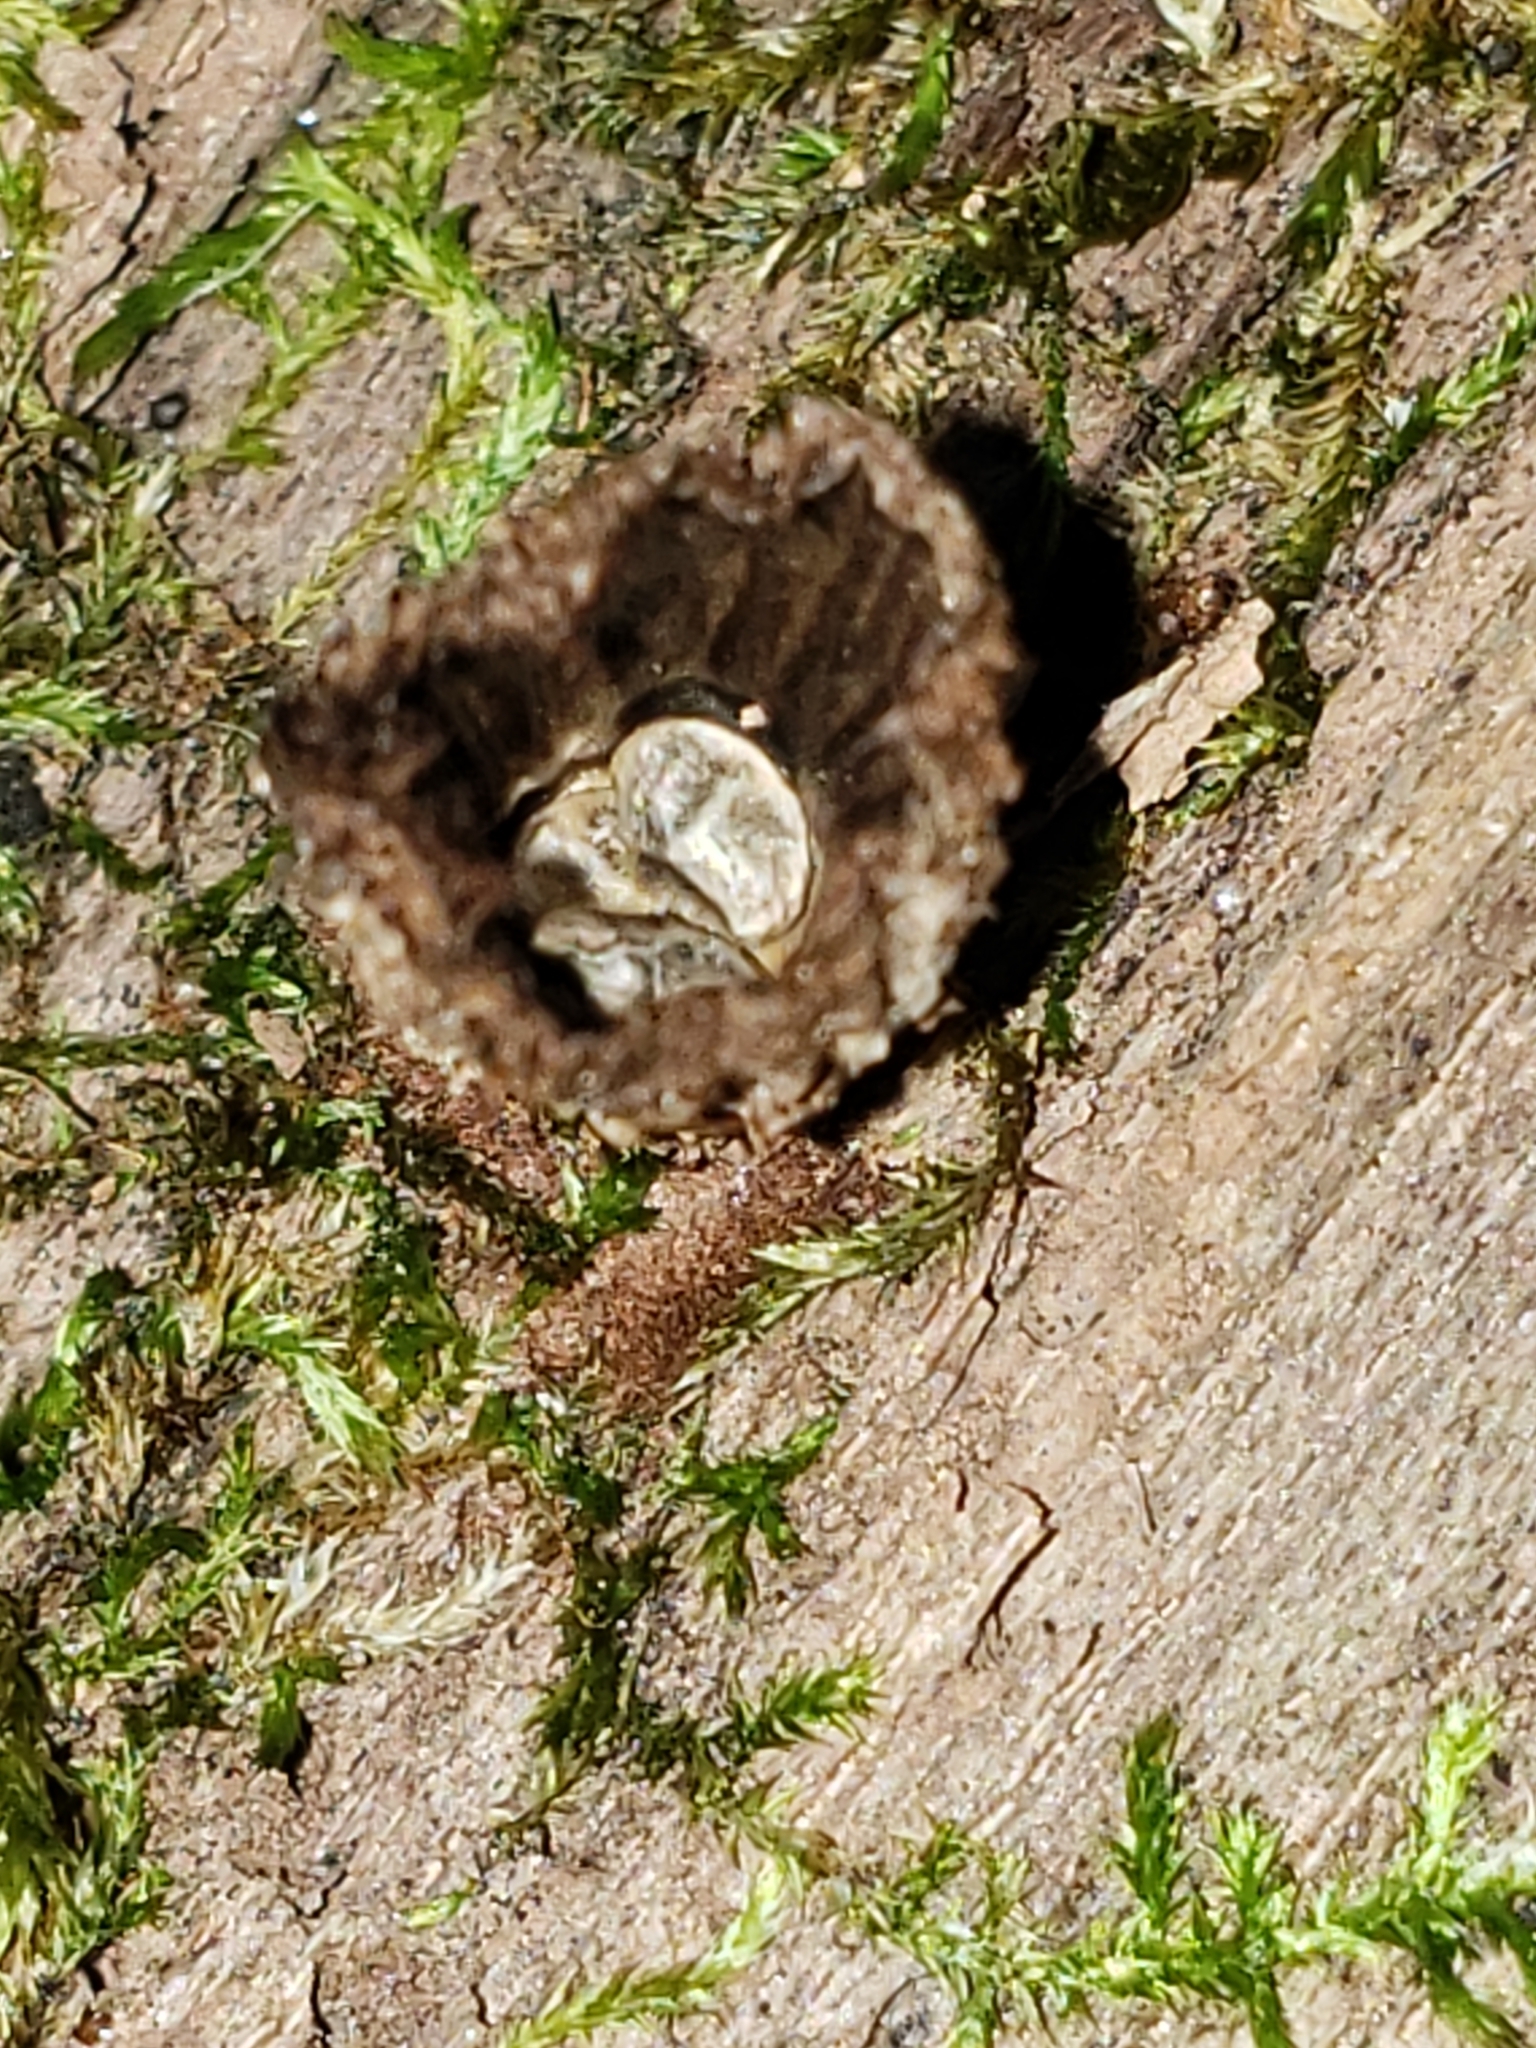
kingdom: Fungi
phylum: Basidiomycota
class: Agaricomycetes
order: Agaricales
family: Agaricaceae
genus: Cyathus
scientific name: Cyathus striatus
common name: Fluted bird's nest
